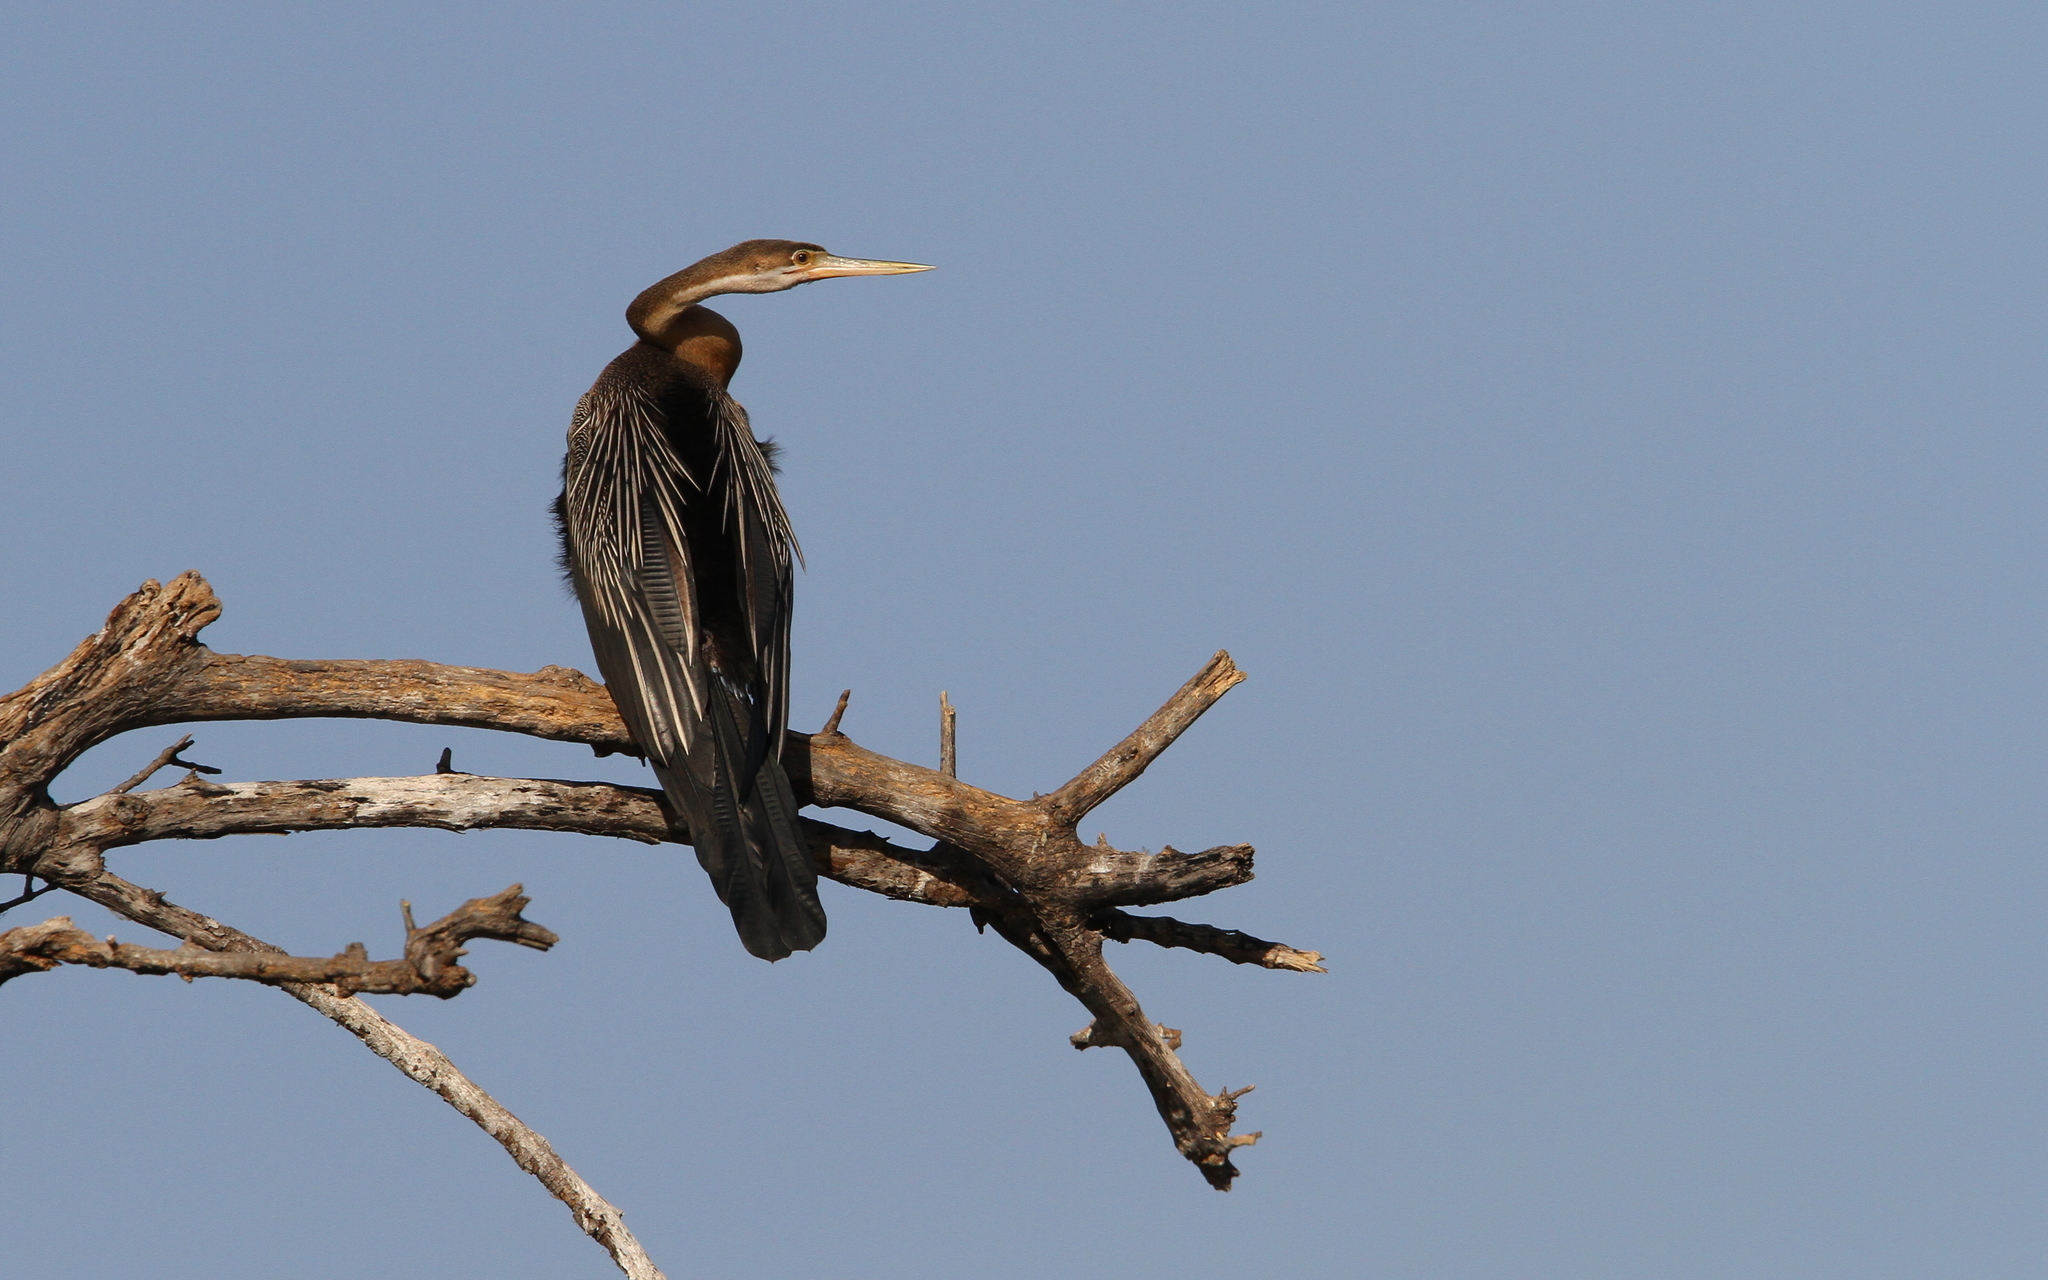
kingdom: Animalia
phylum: Chordata
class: Aves
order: Suliformes
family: Anhingidae
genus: Anhinga
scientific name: Anhinga rufa
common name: African darter
